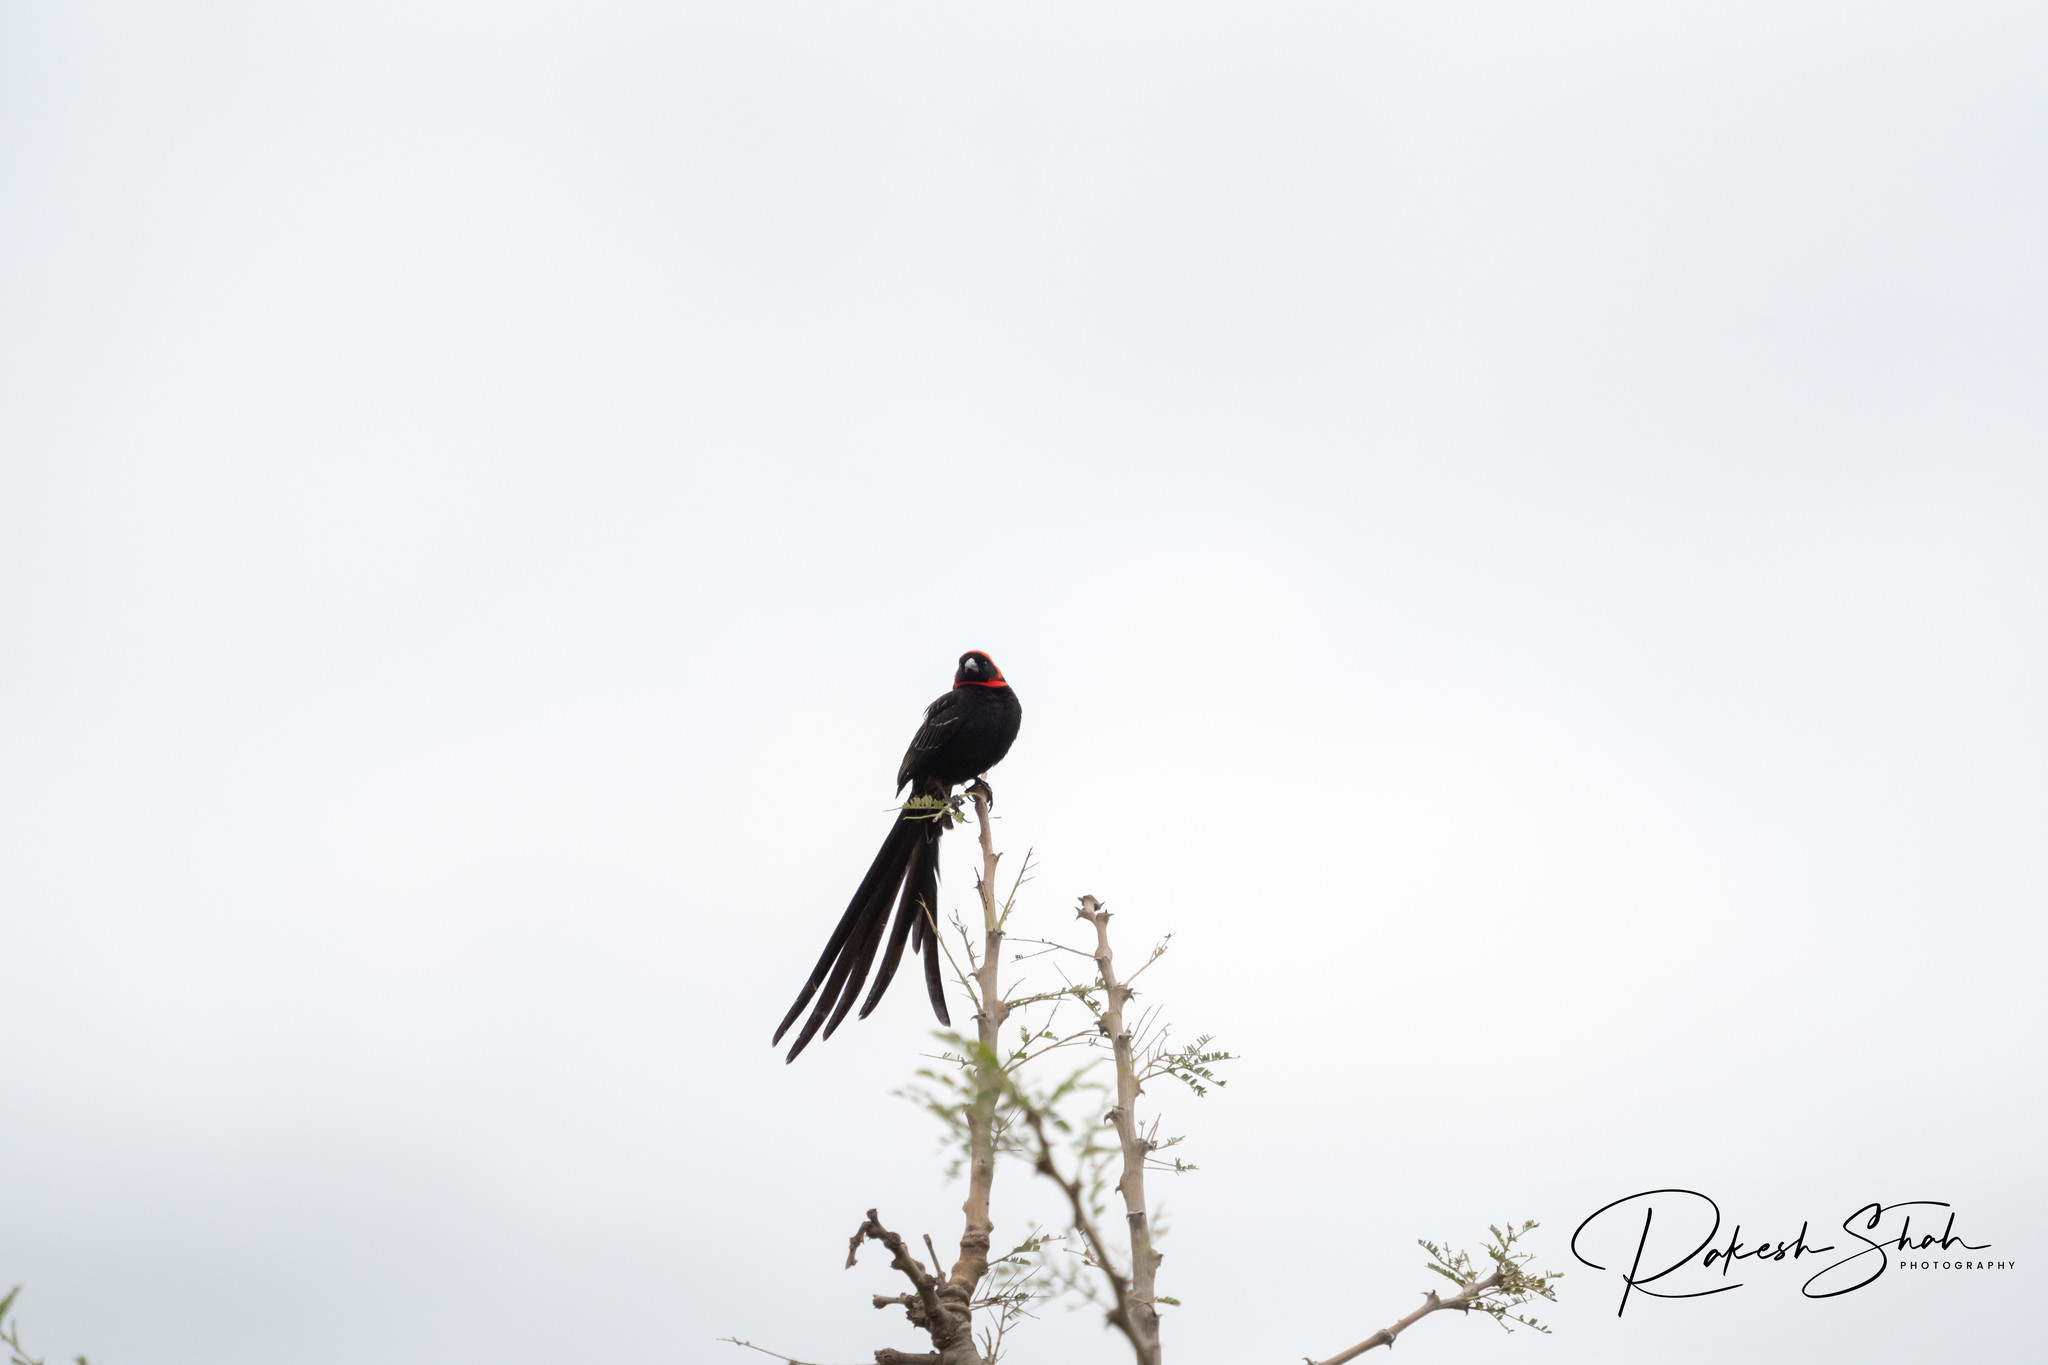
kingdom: Animalia
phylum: Chordata
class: Aves
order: Passeriformes
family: Ploceidae
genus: Euplectes
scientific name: Euplectes ardens
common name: Red-collared widowbird
